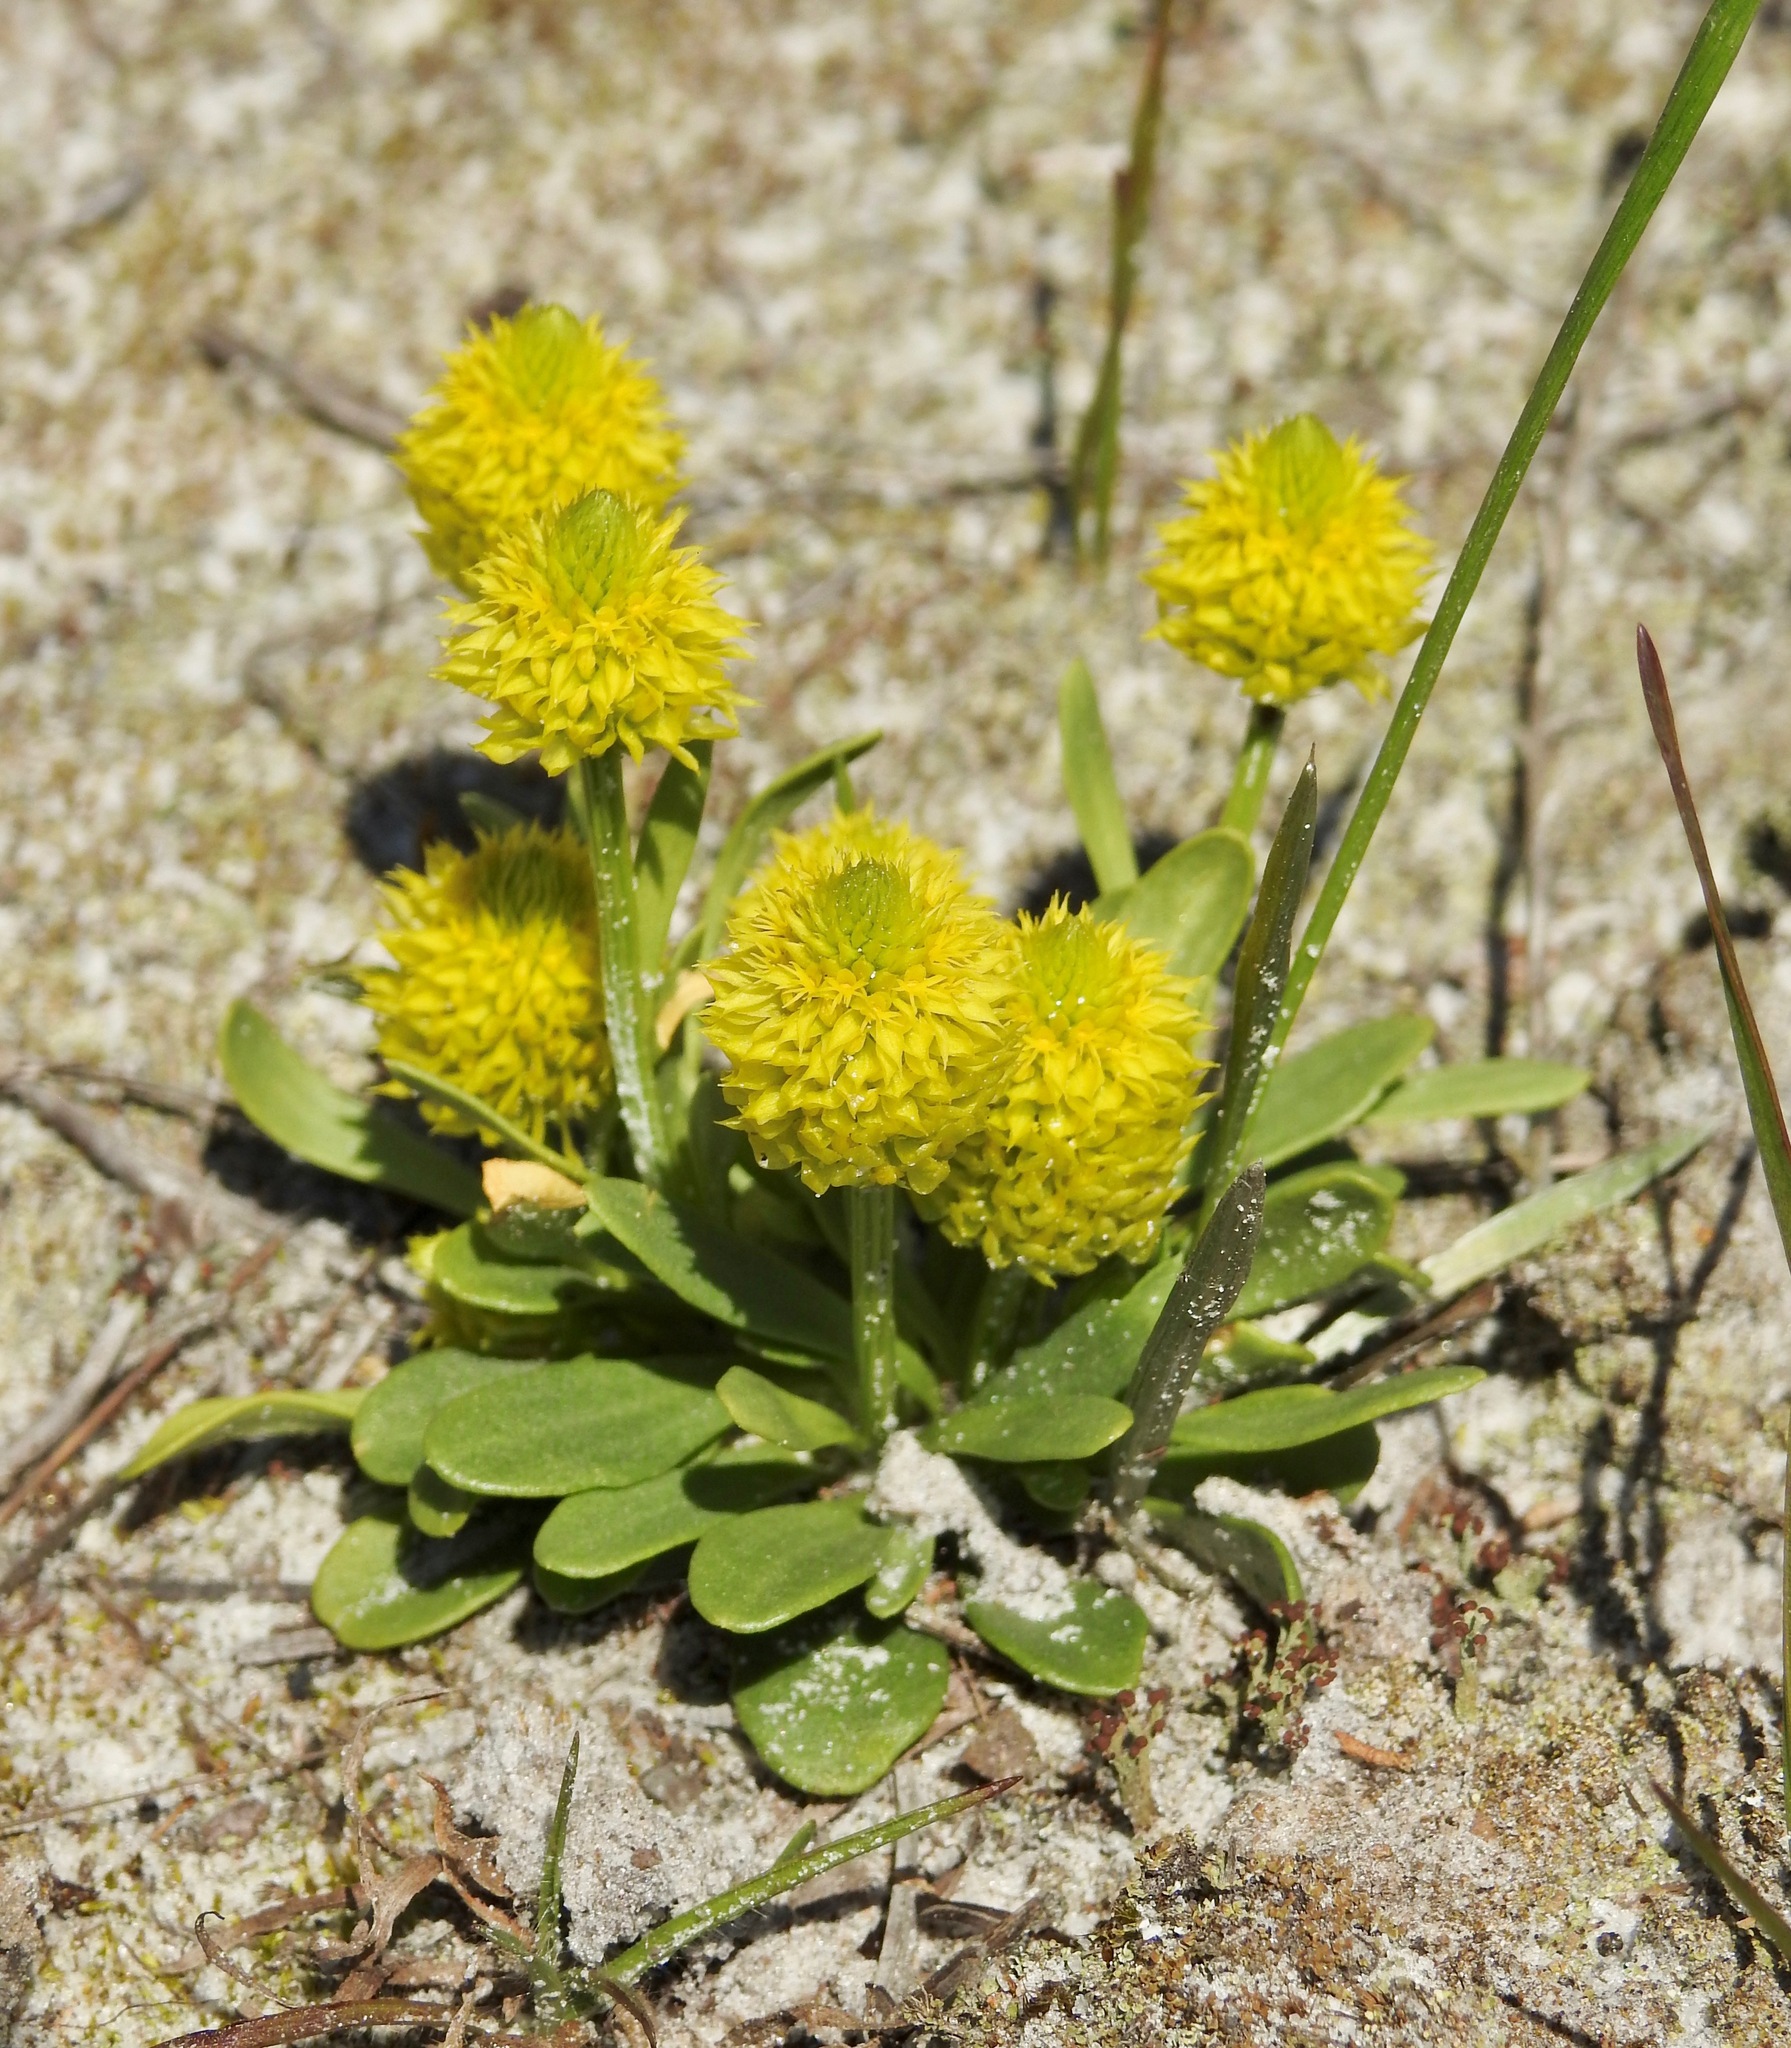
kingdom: Plantae
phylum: Tracheophyta
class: Magnoliopsida
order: Fabales
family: Polygalaceae
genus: Polygala
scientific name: Polygala nana
